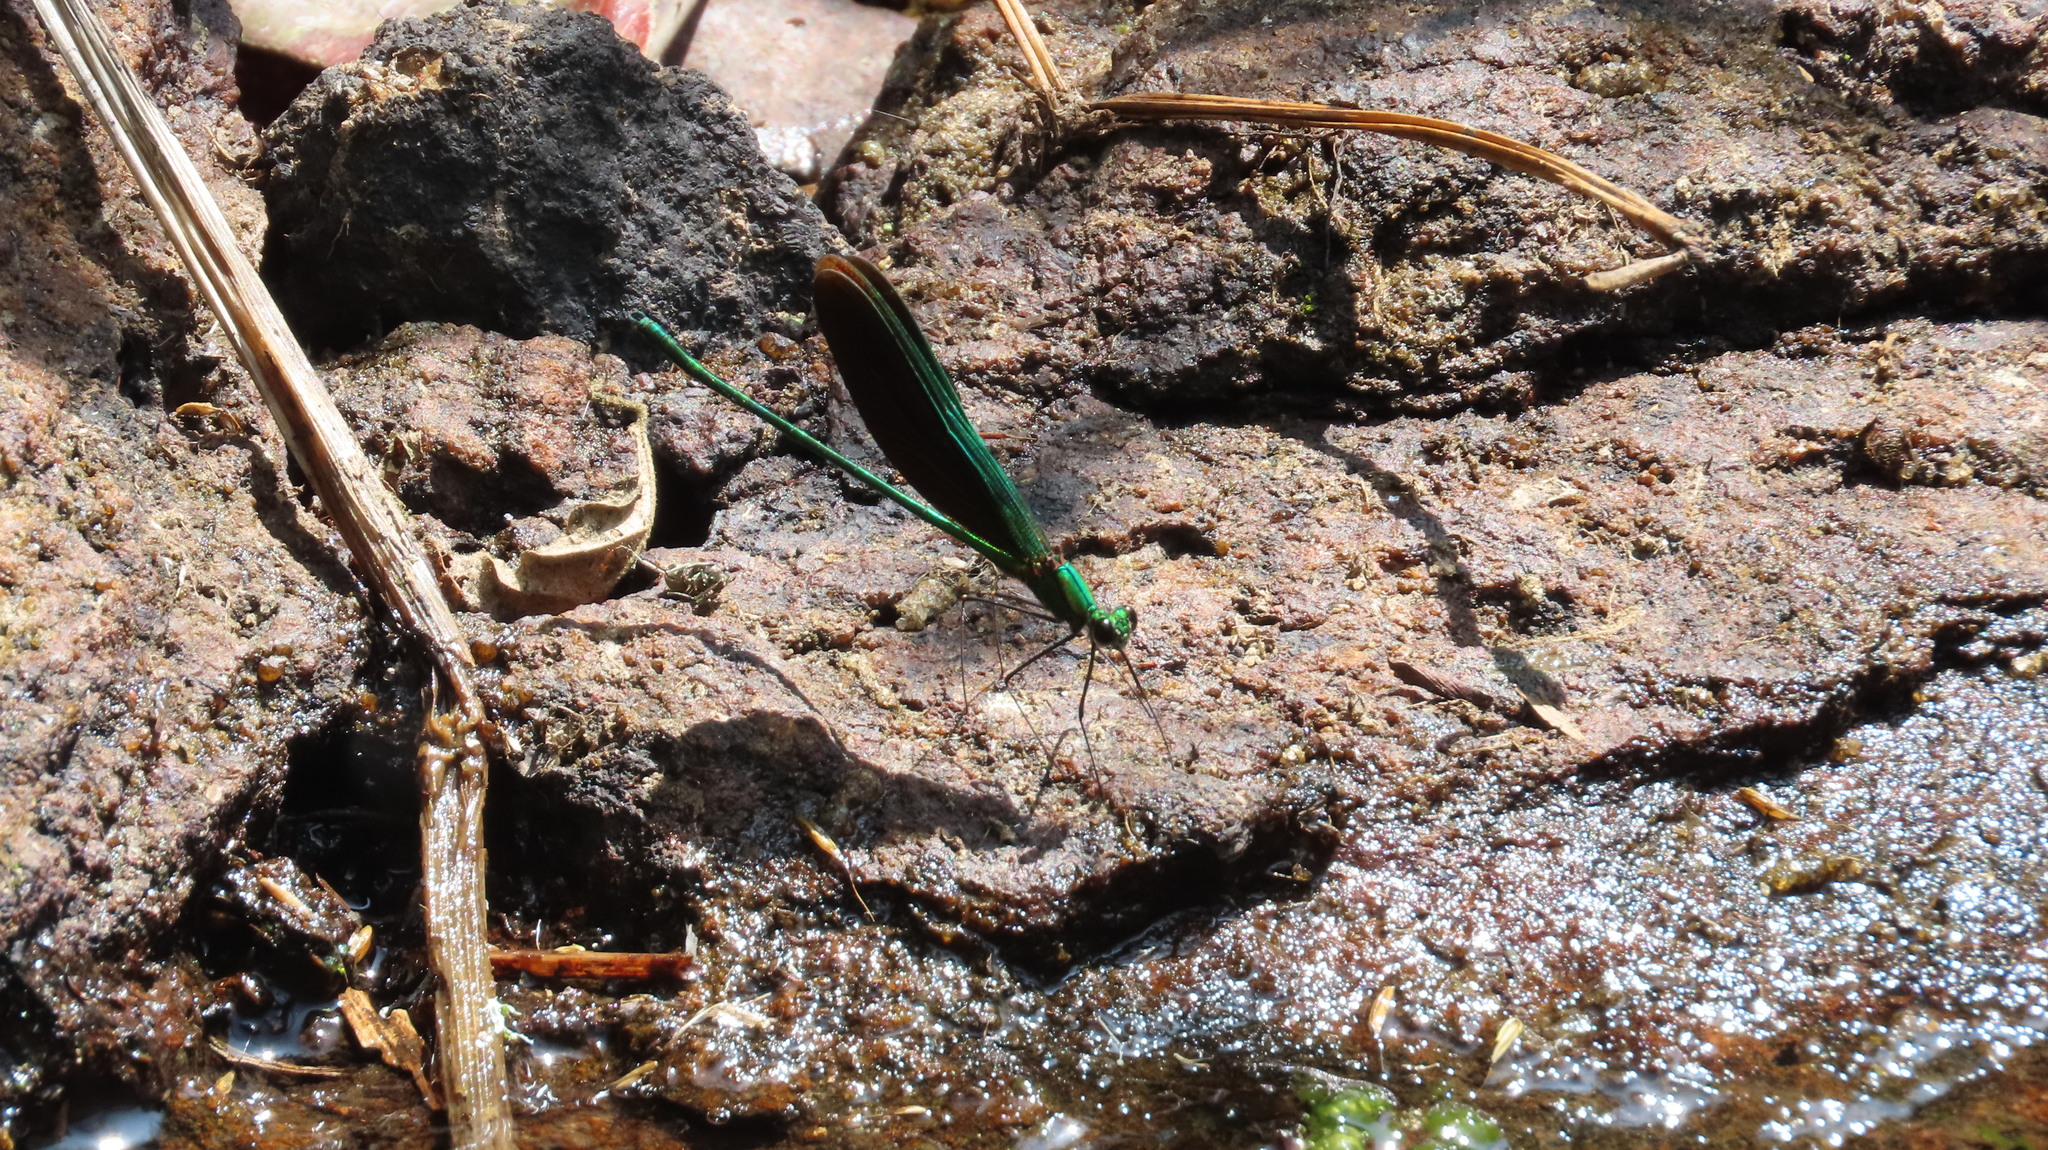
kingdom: Animalia
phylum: Arthropoda
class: Insecta
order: Odonata
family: Calopterygidae
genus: Neurobasis
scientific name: Neurobasis chinensis
